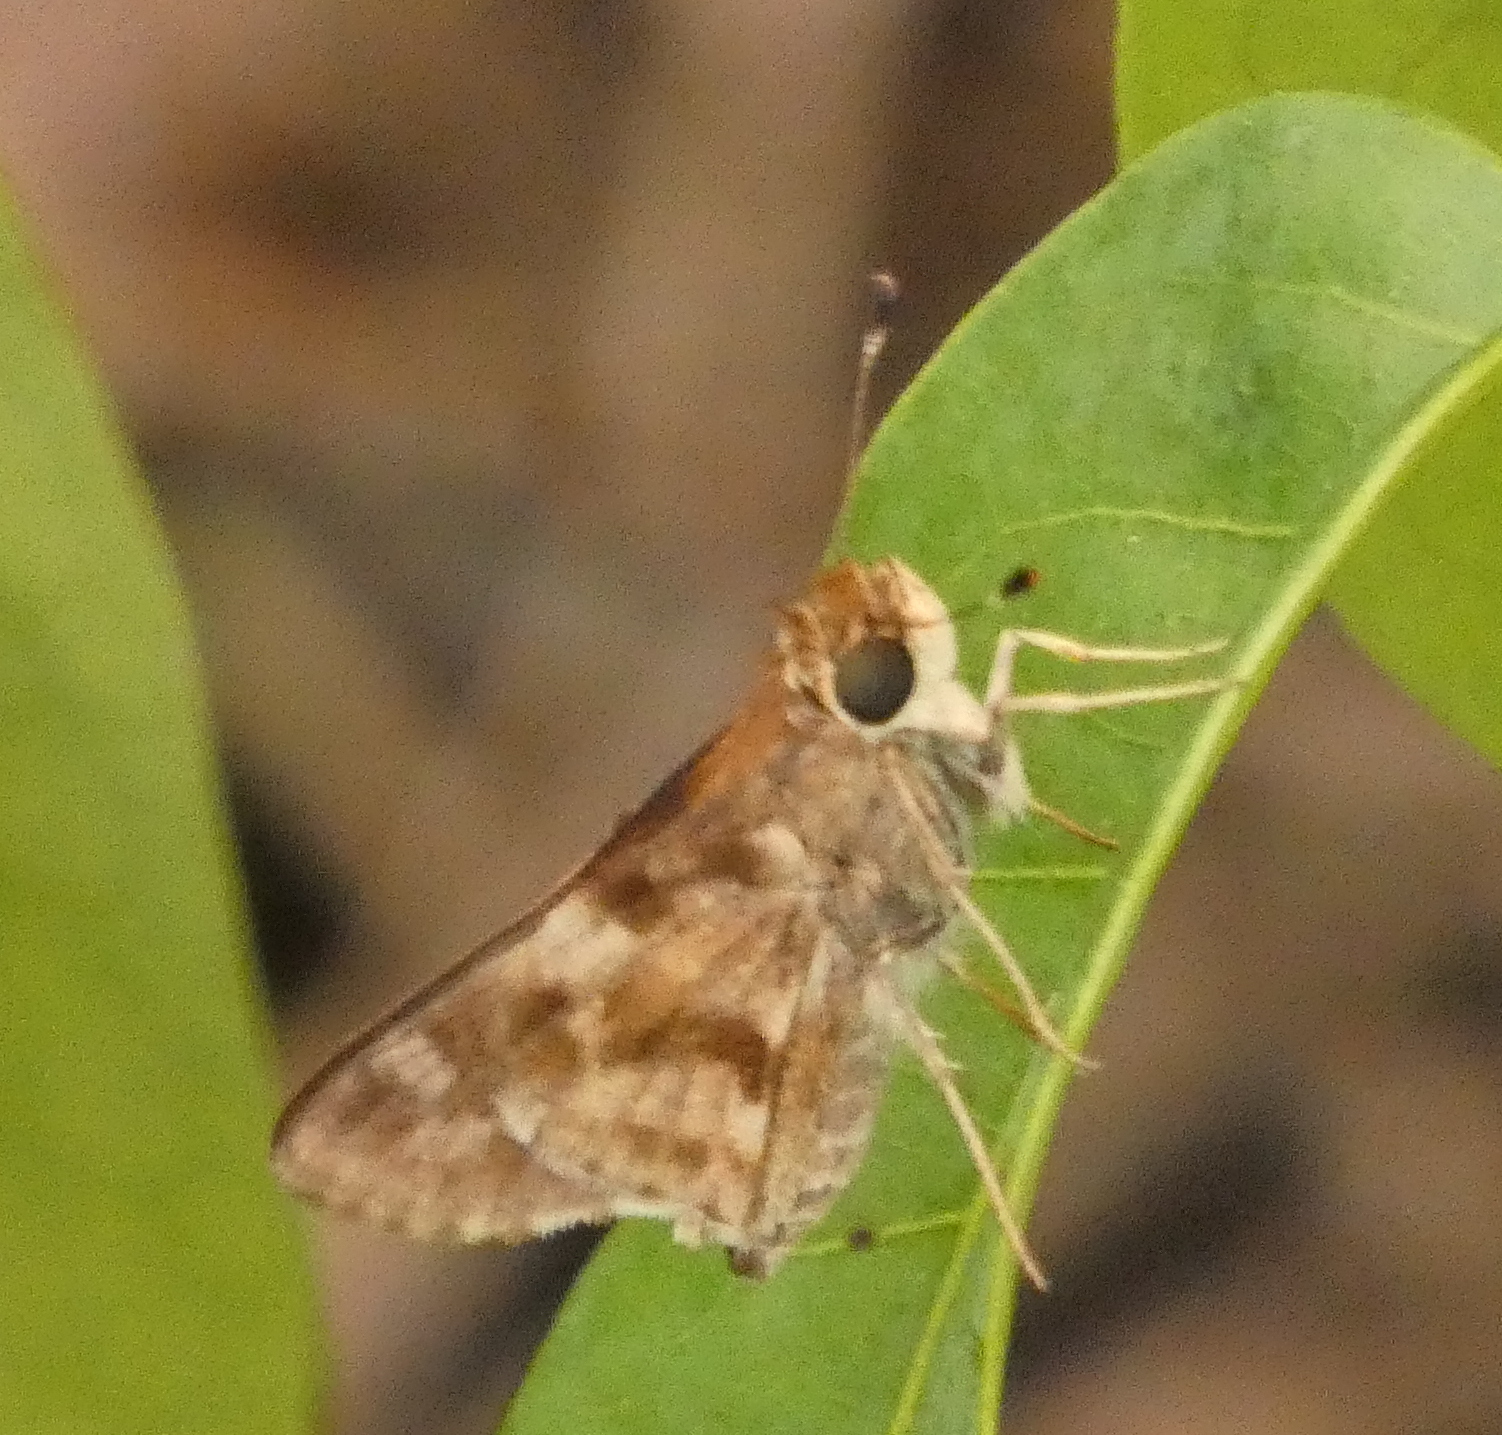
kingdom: Animalia
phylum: Arthropoda
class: Insecta
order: Lepidoptera
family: Hesperiidae
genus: Pompeius
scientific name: Pompeius pompeius
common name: Pompeius skipper
